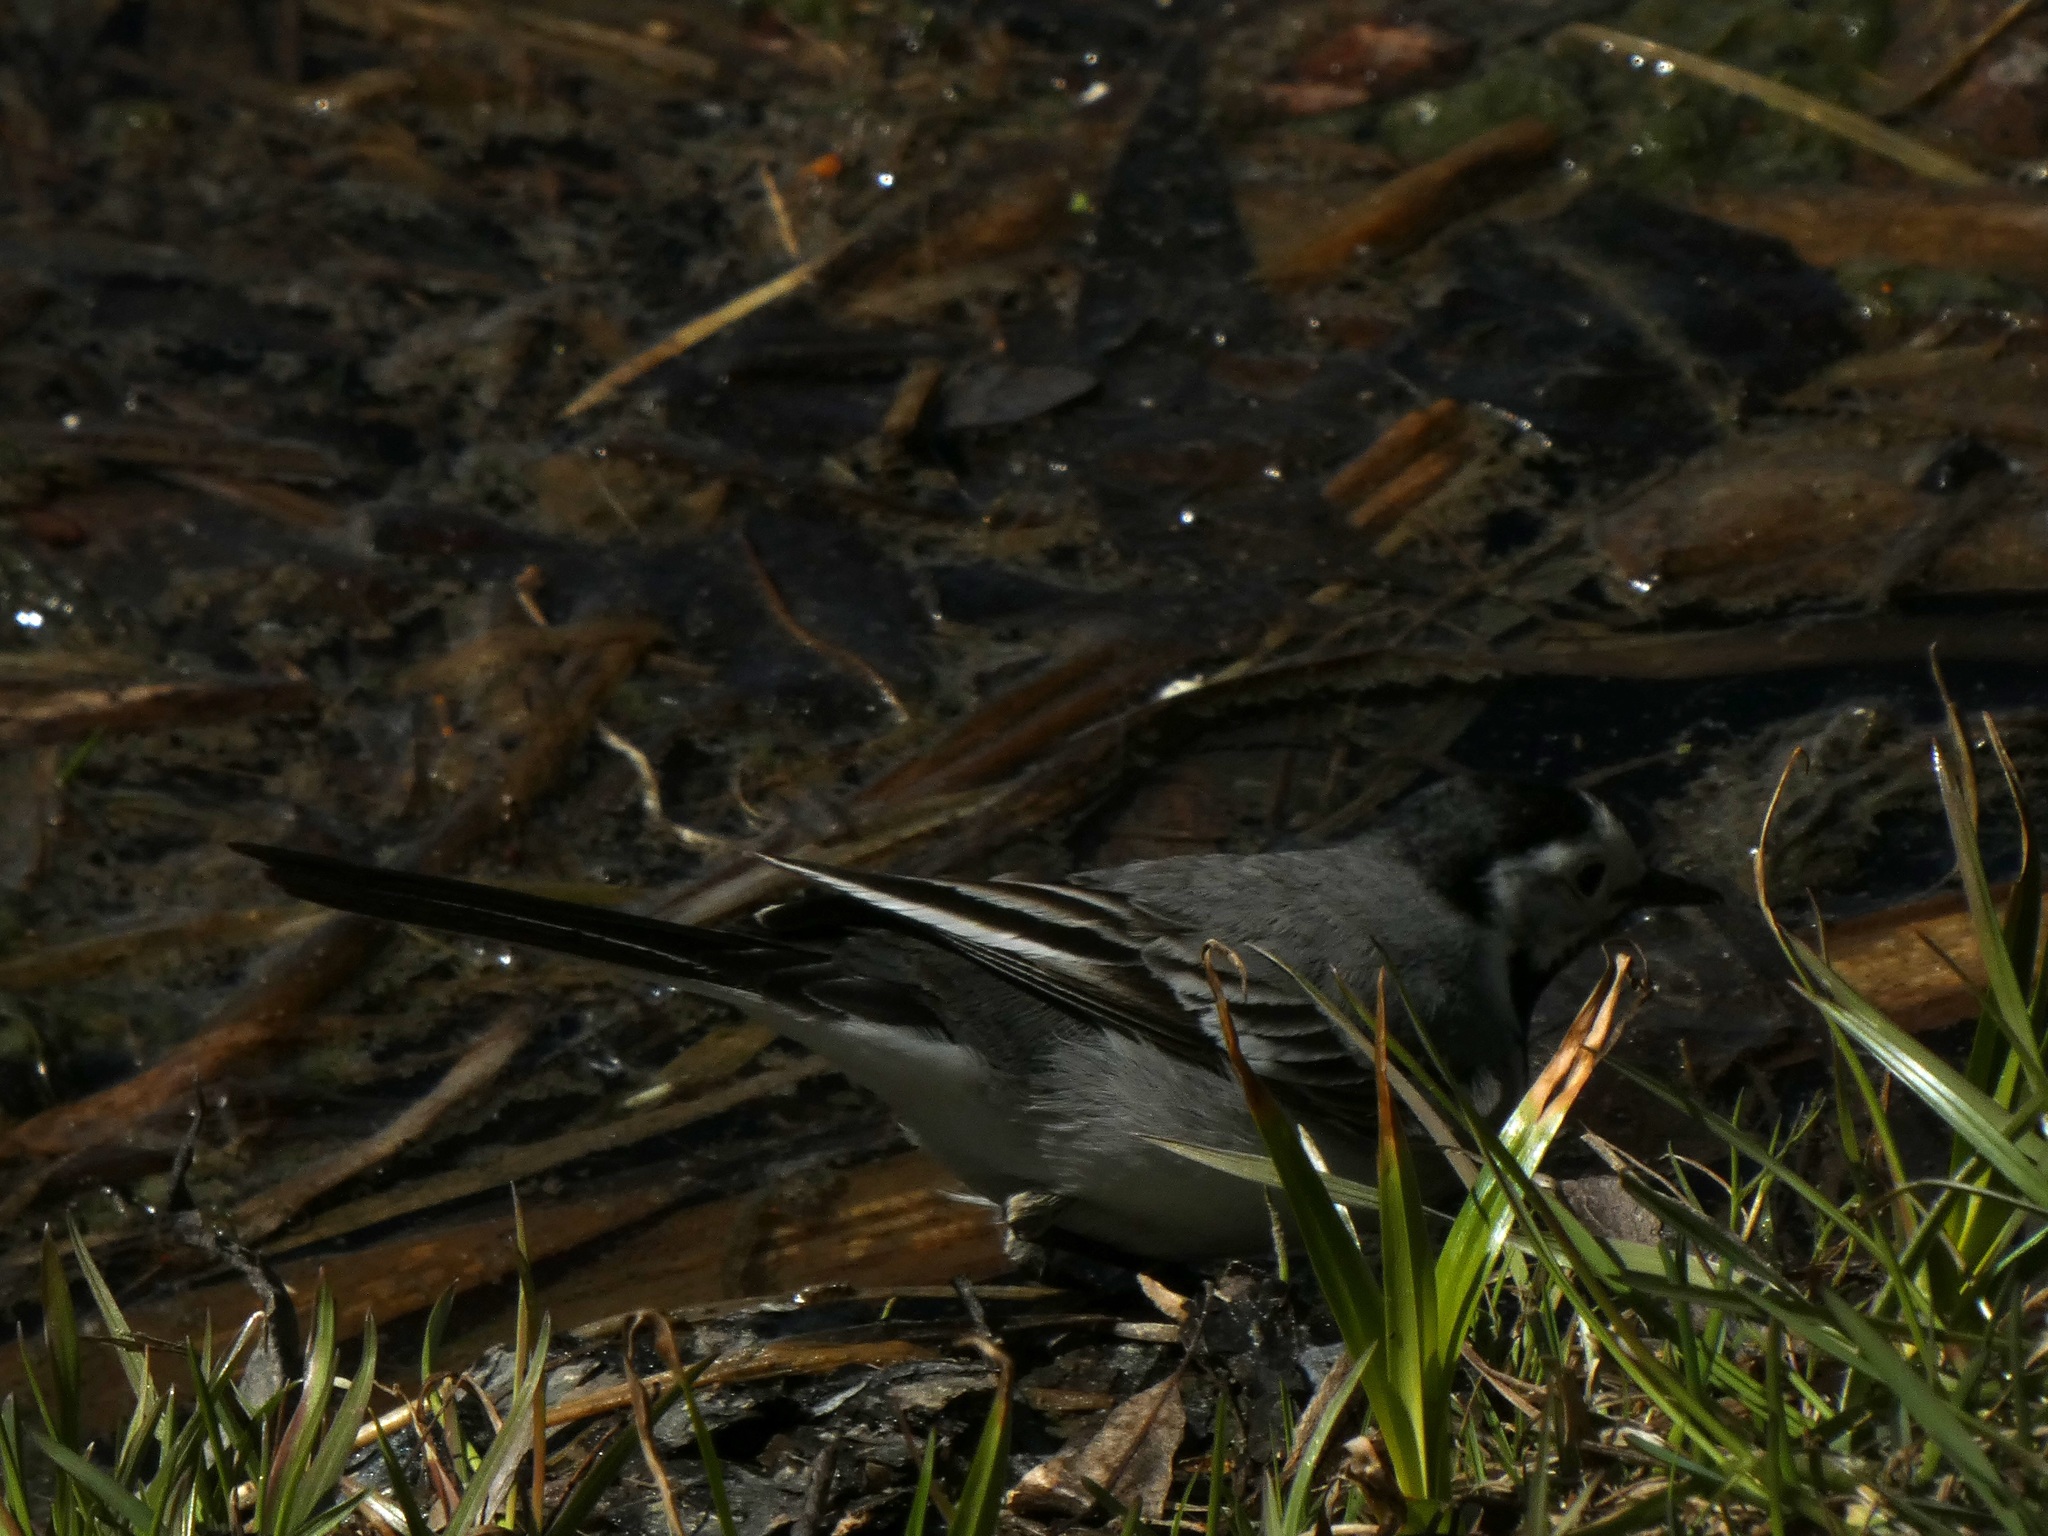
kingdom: Animalia
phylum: Chordata
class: Aves
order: Passeriformes
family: Motacillidae
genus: Motacilla
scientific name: Motacilla alba
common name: White wagtail
